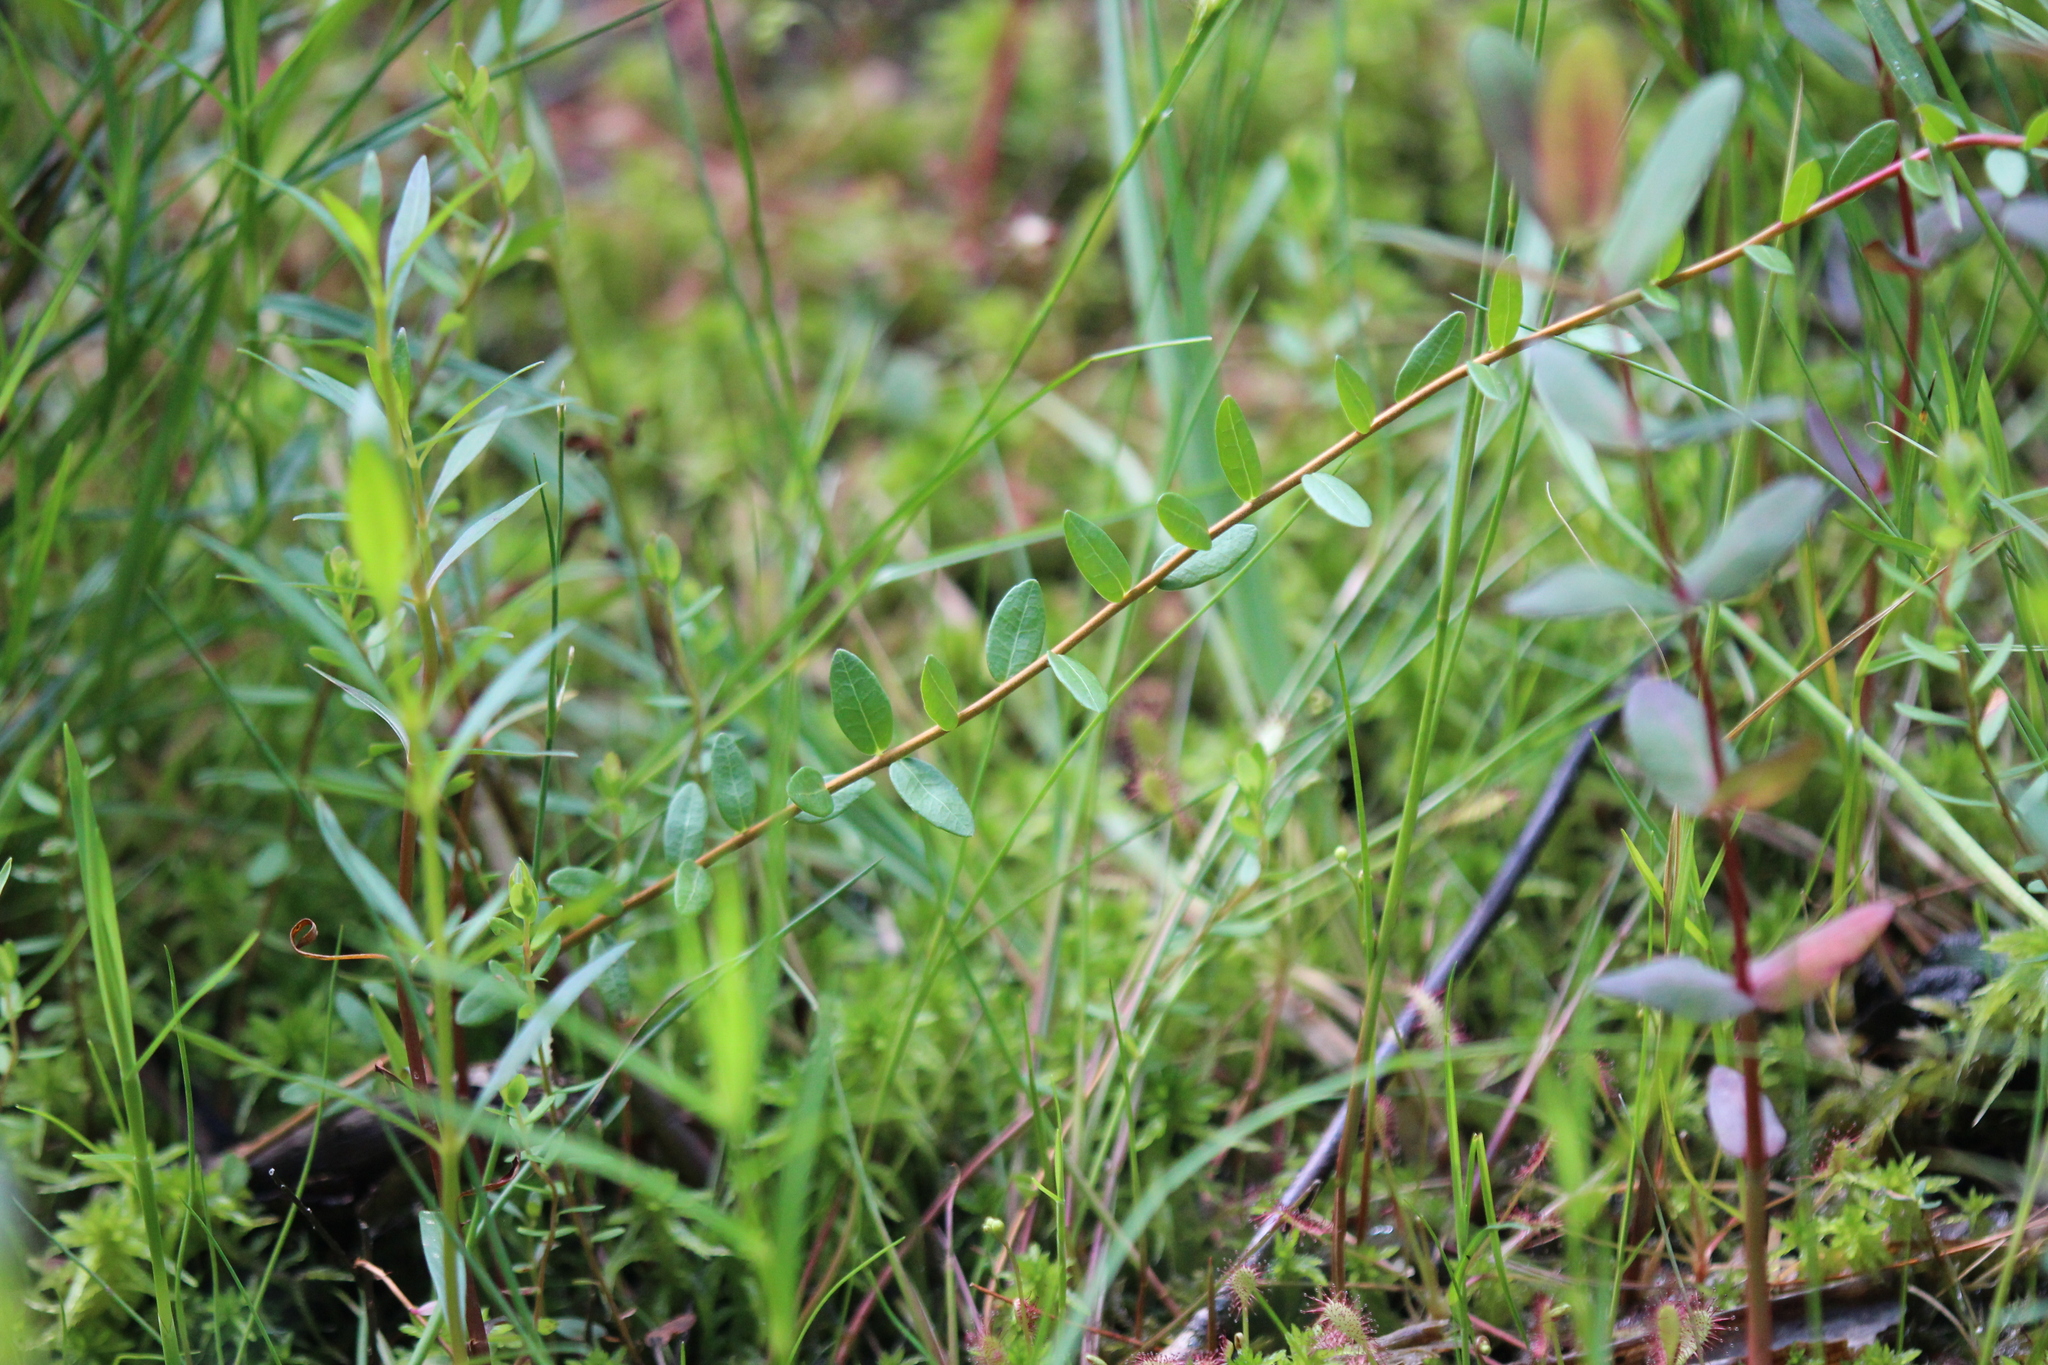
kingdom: Plantae
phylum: Tracheophyta
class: Magnoliopsida
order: Ericales
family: Ericaceae
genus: Vaccinium
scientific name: Vaccinium macrocarpon
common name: American cranberry
